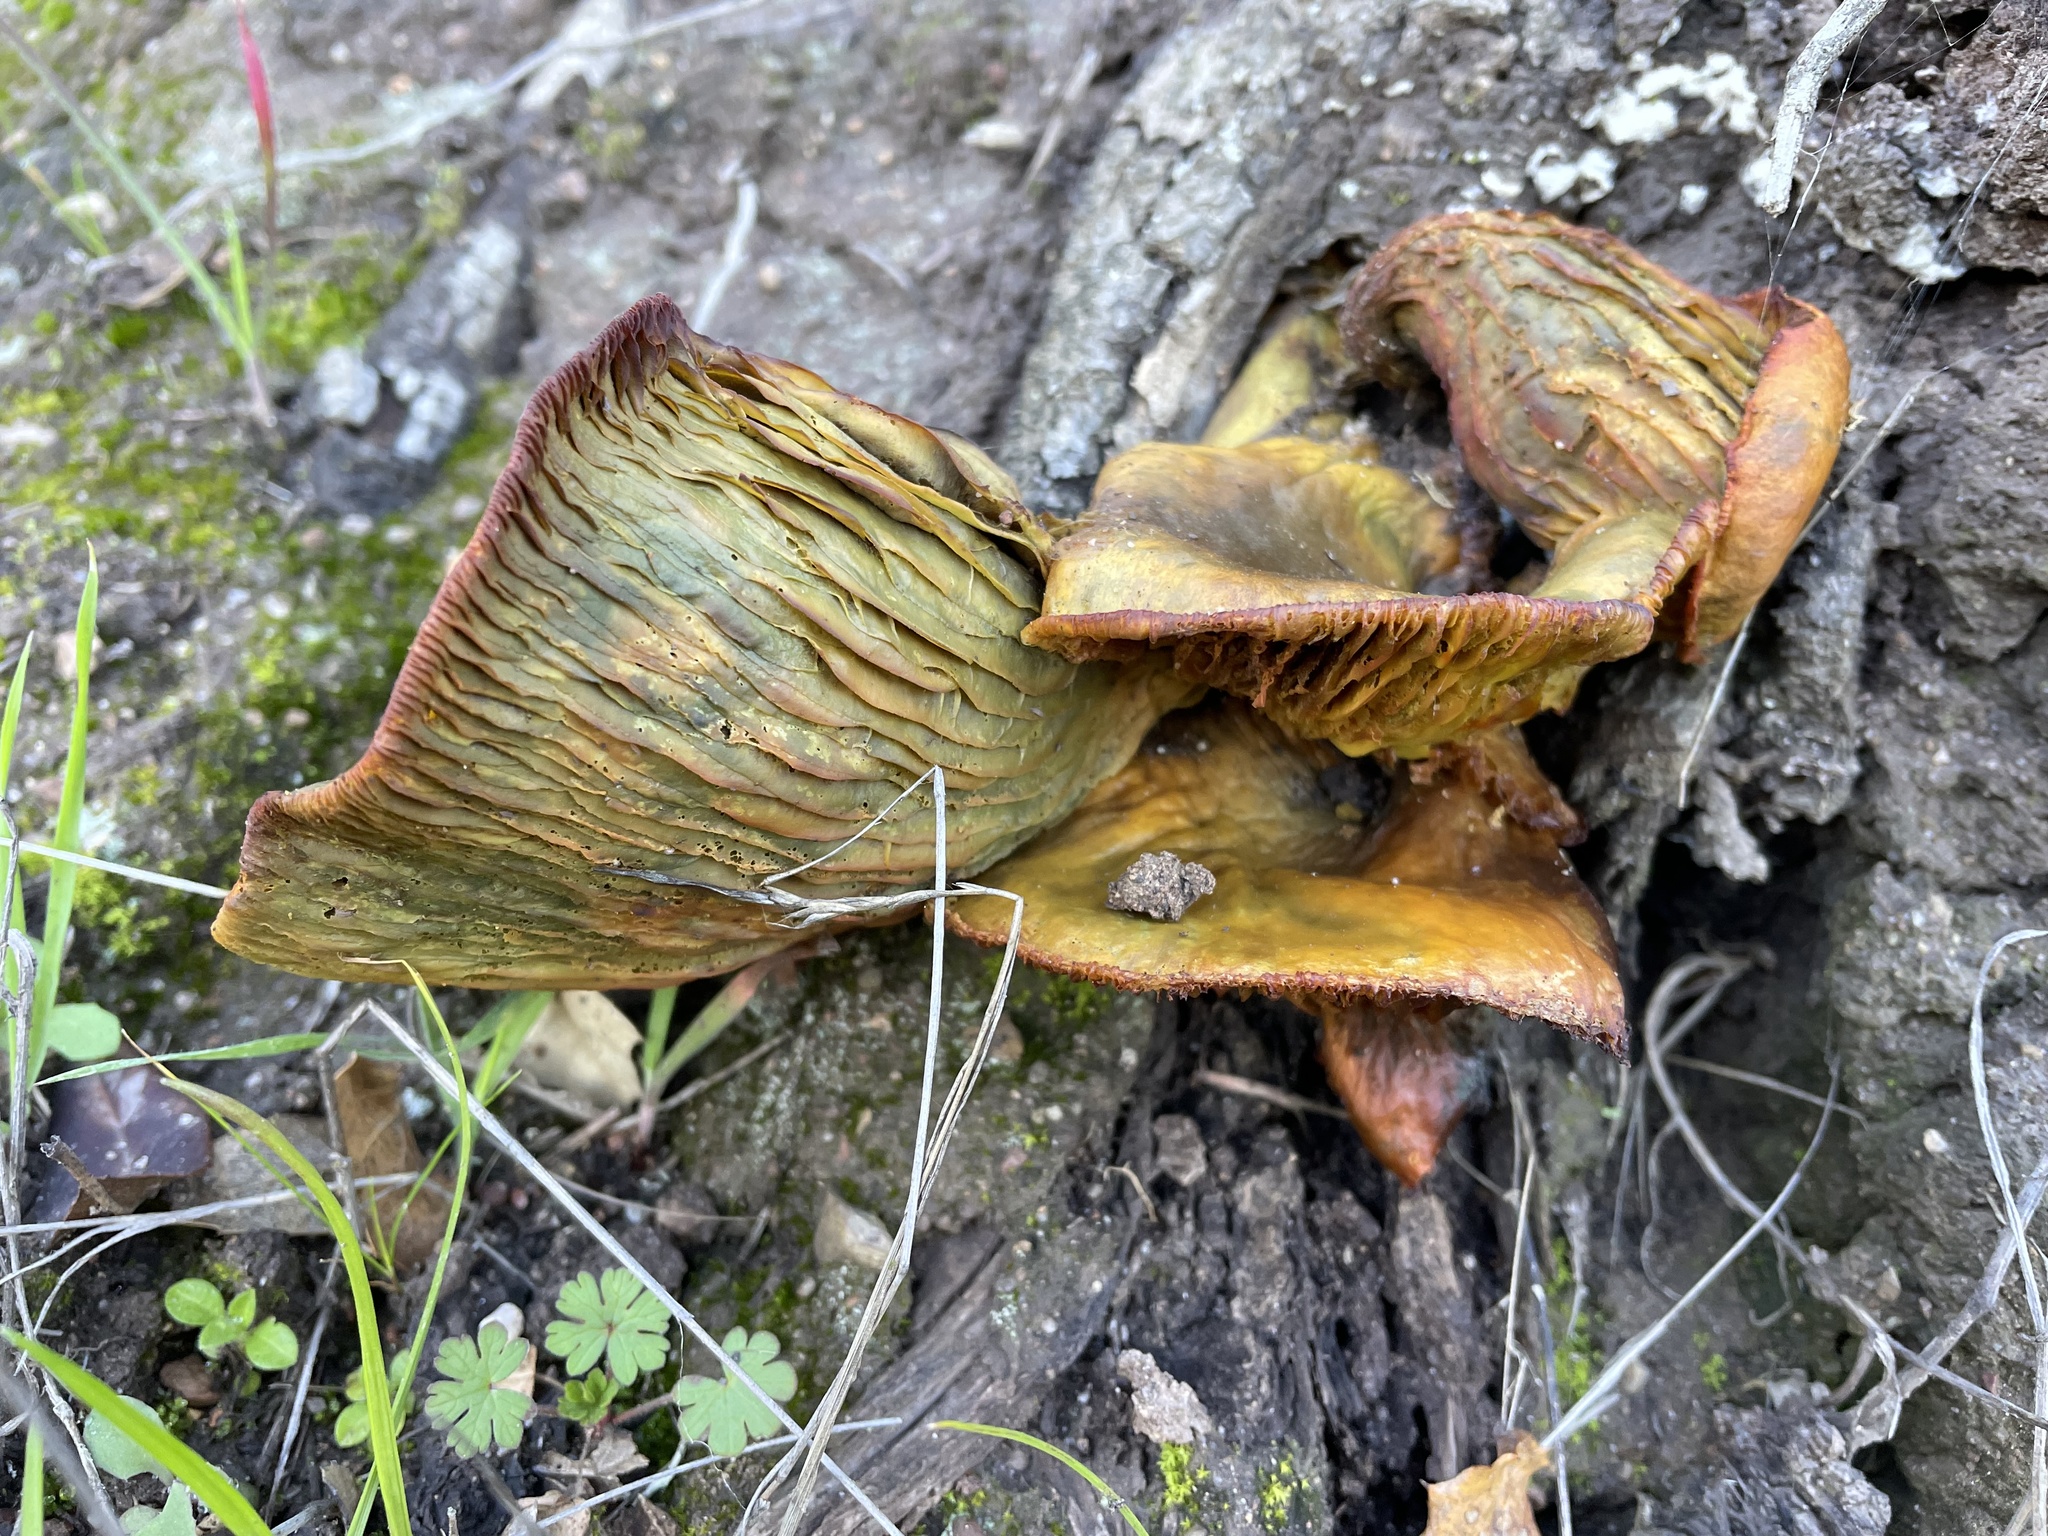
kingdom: Fungi
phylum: Basidiomycota
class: Agaricomycetes
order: Agaricales
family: Omphalotaceae
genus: Omphalotus
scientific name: Omphalotus olivascens
